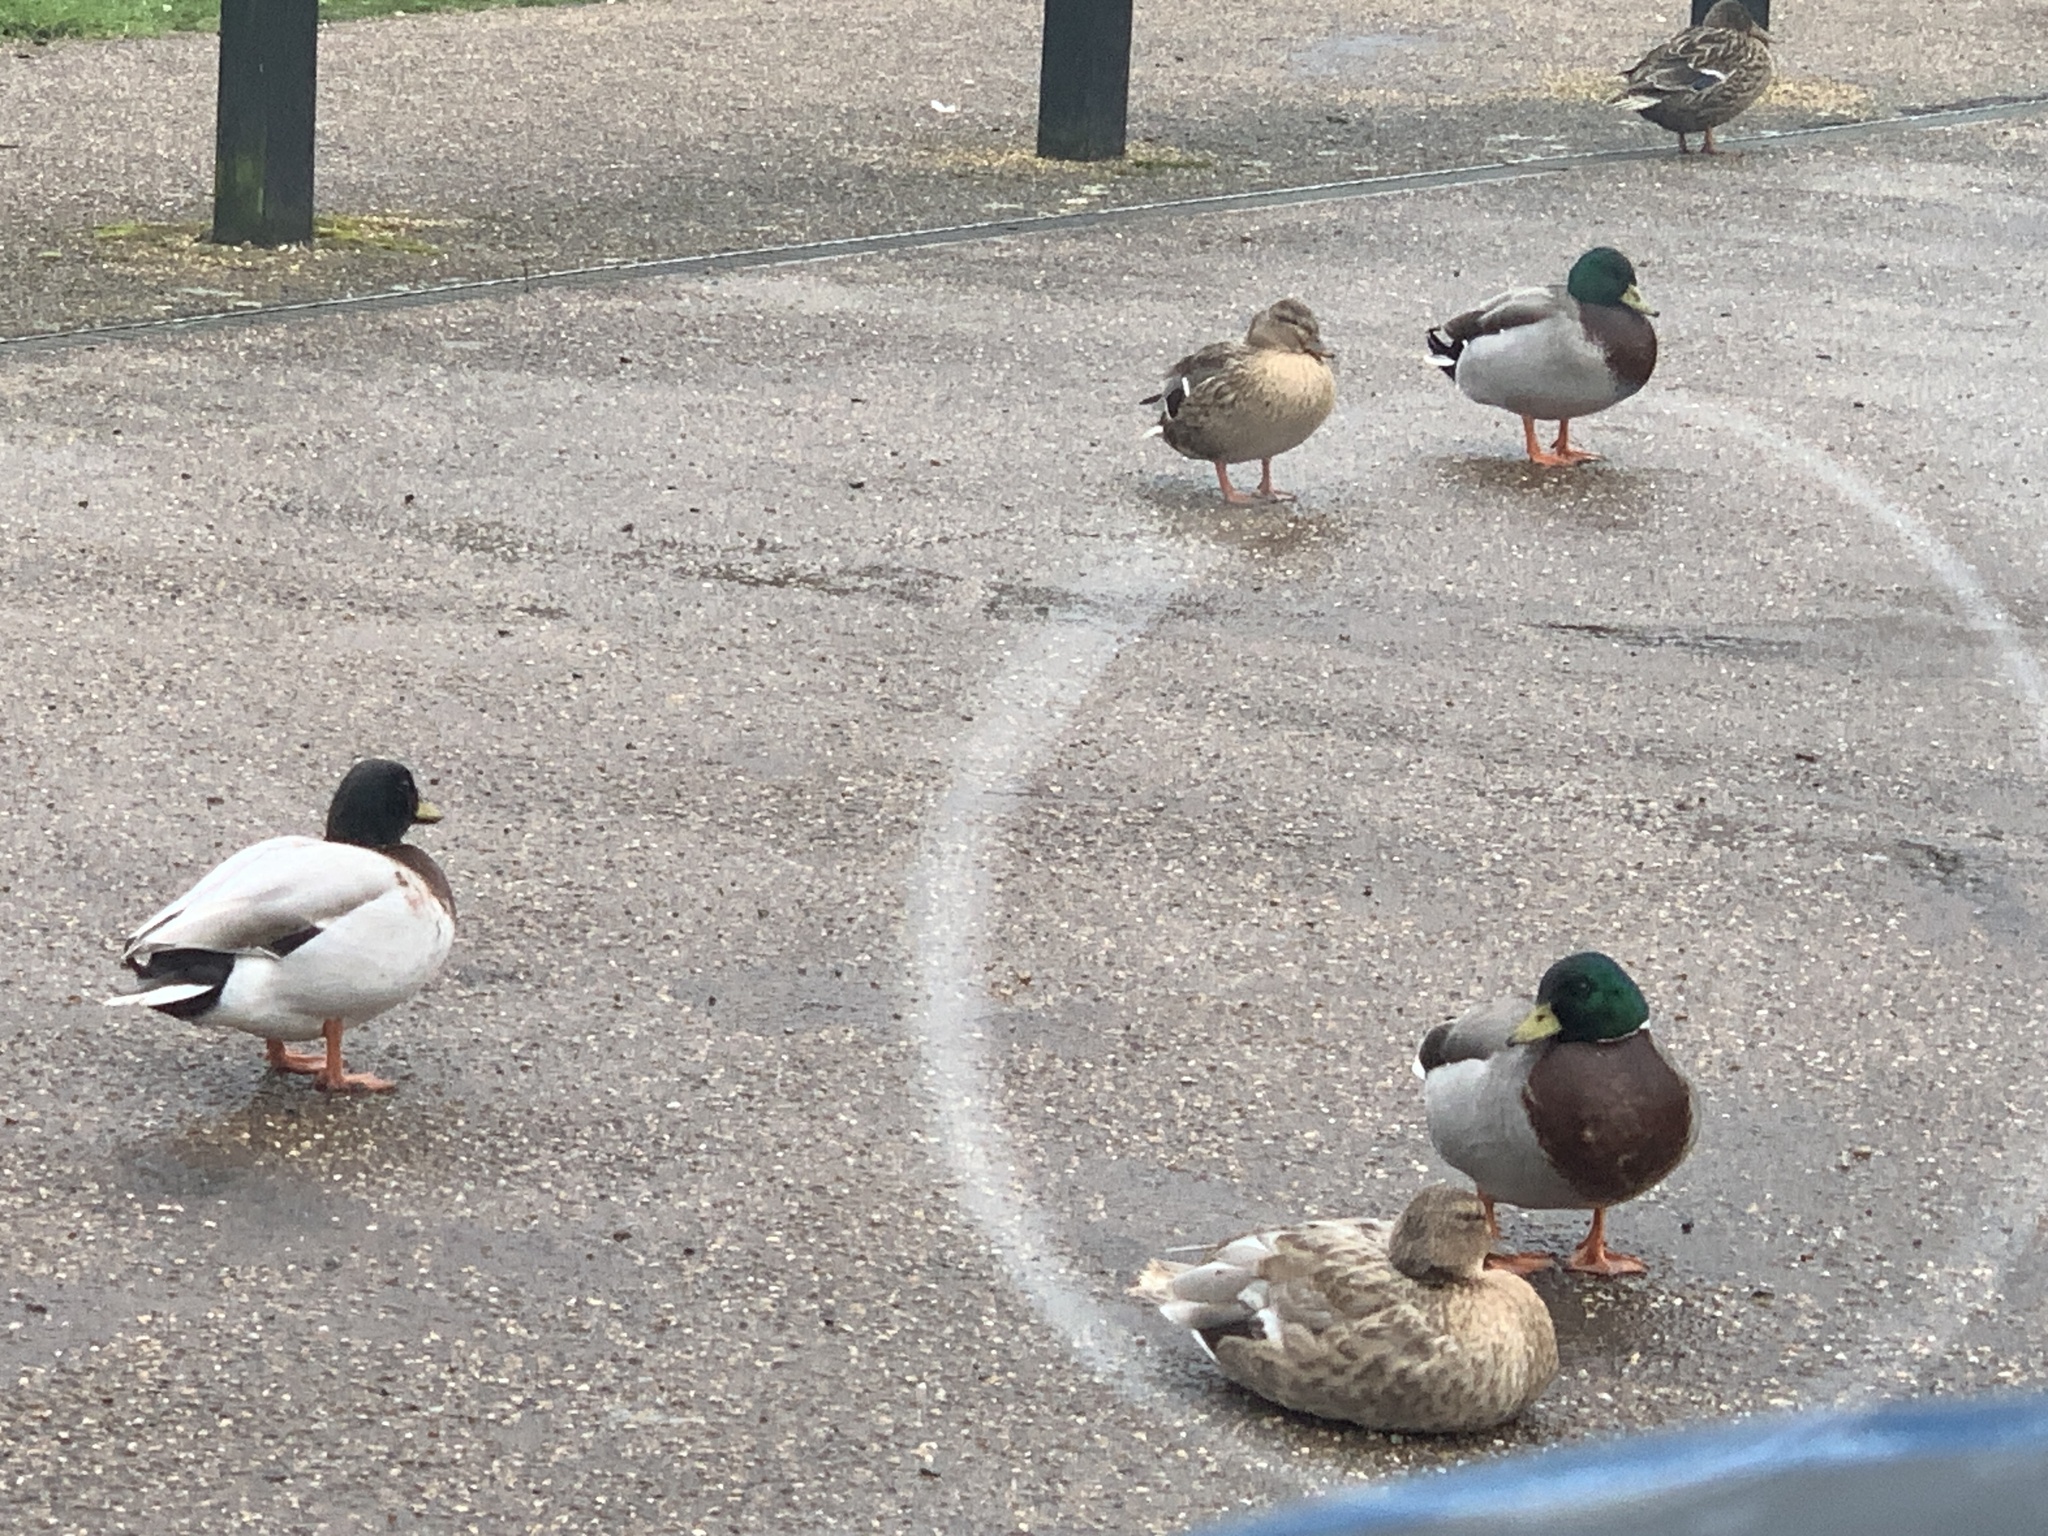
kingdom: Animalia
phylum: Chordata
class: Aves
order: Anseriformes
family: Anatidae
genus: Anas
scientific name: Anas platyrhynchos
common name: Mallard
